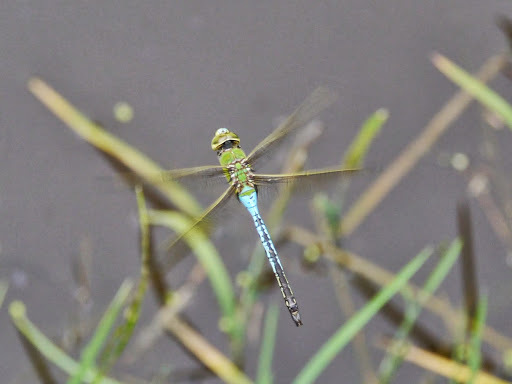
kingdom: Animalia
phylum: Arthropoda
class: Insecta
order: Odonata
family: Aeshnidae
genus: Anax
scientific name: Anax junius
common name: Common green darner
